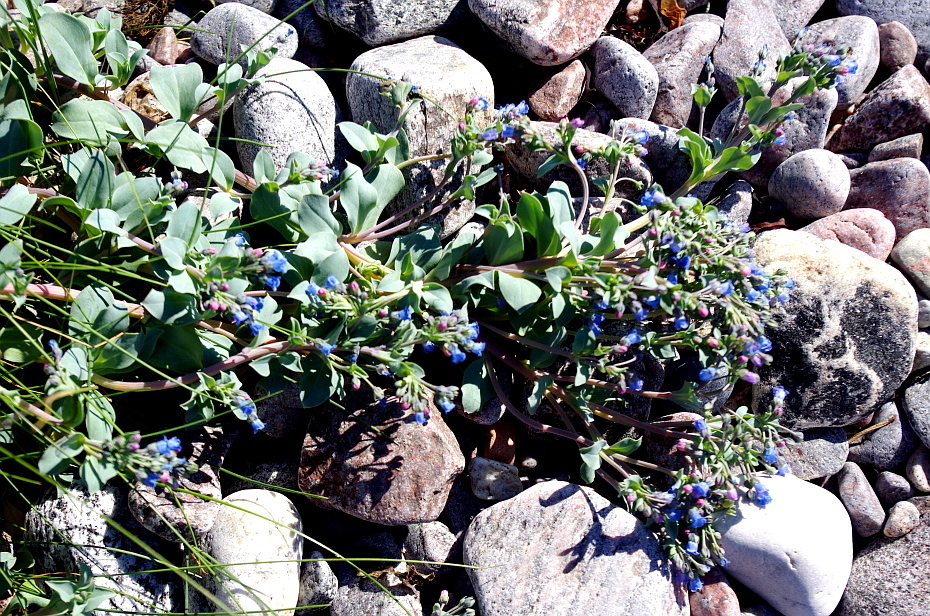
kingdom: Plantae
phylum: Tracheophyta
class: Magnoliopsida
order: Boraginales
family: Boraginaceae
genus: Mertensia
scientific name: Mertensia maritima
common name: Oysterplant
